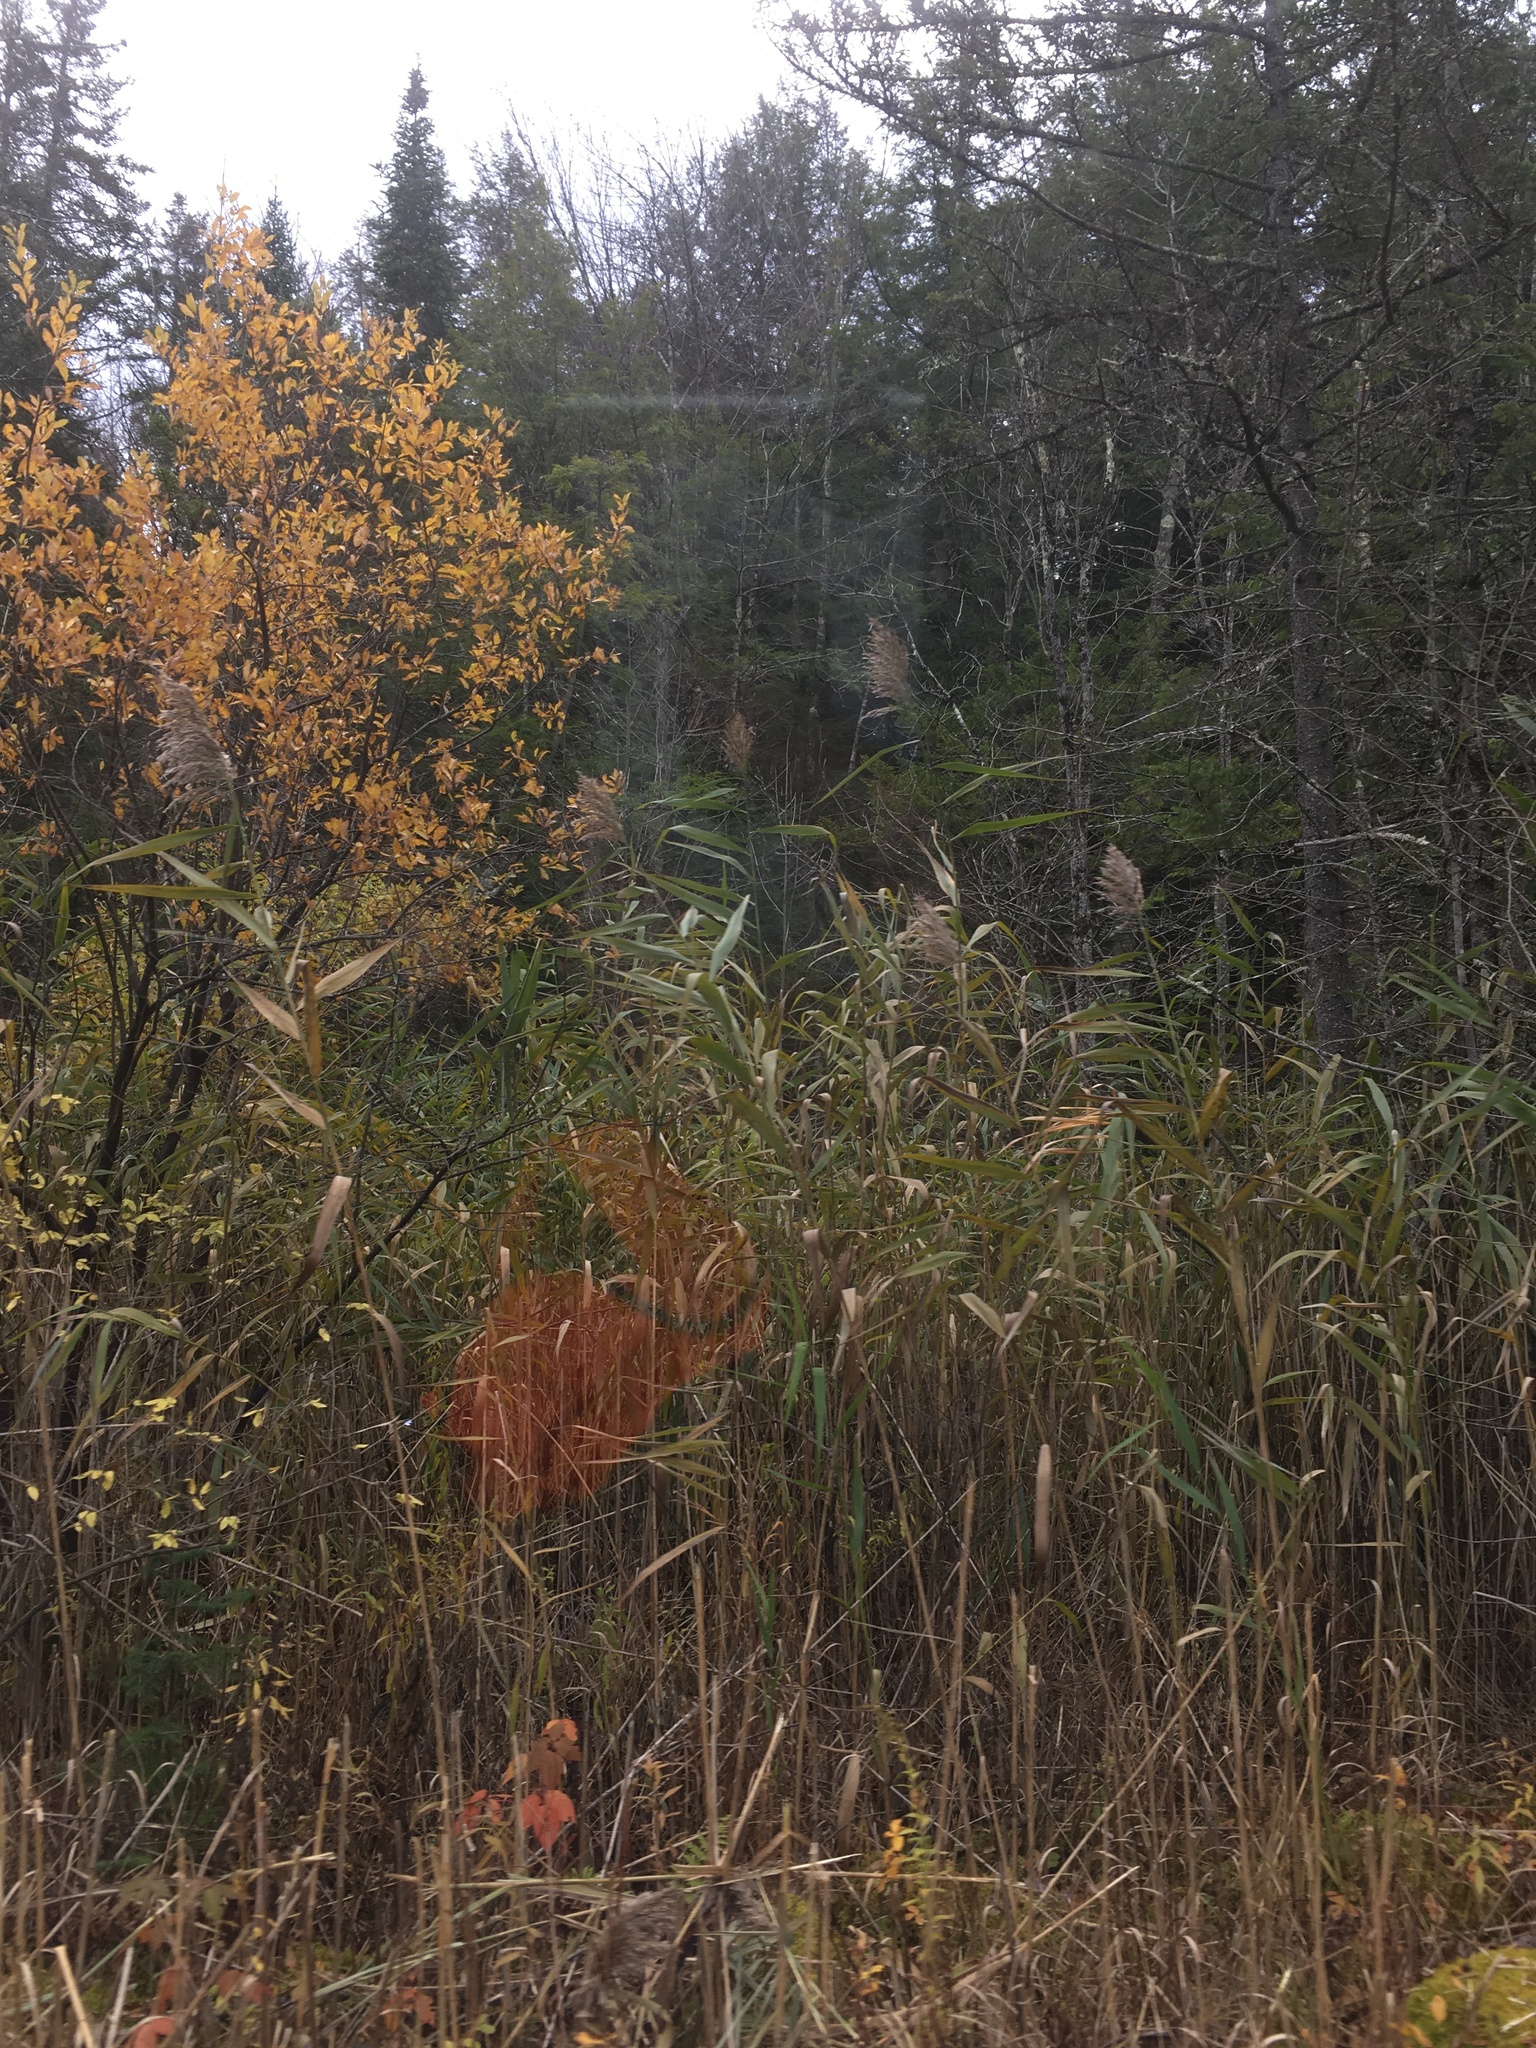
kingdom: Plantae
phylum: Tracheophyta
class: Liliopsida
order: Poales
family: Poaceae
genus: Phragmites
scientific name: Phragmites australis
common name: Common reed
